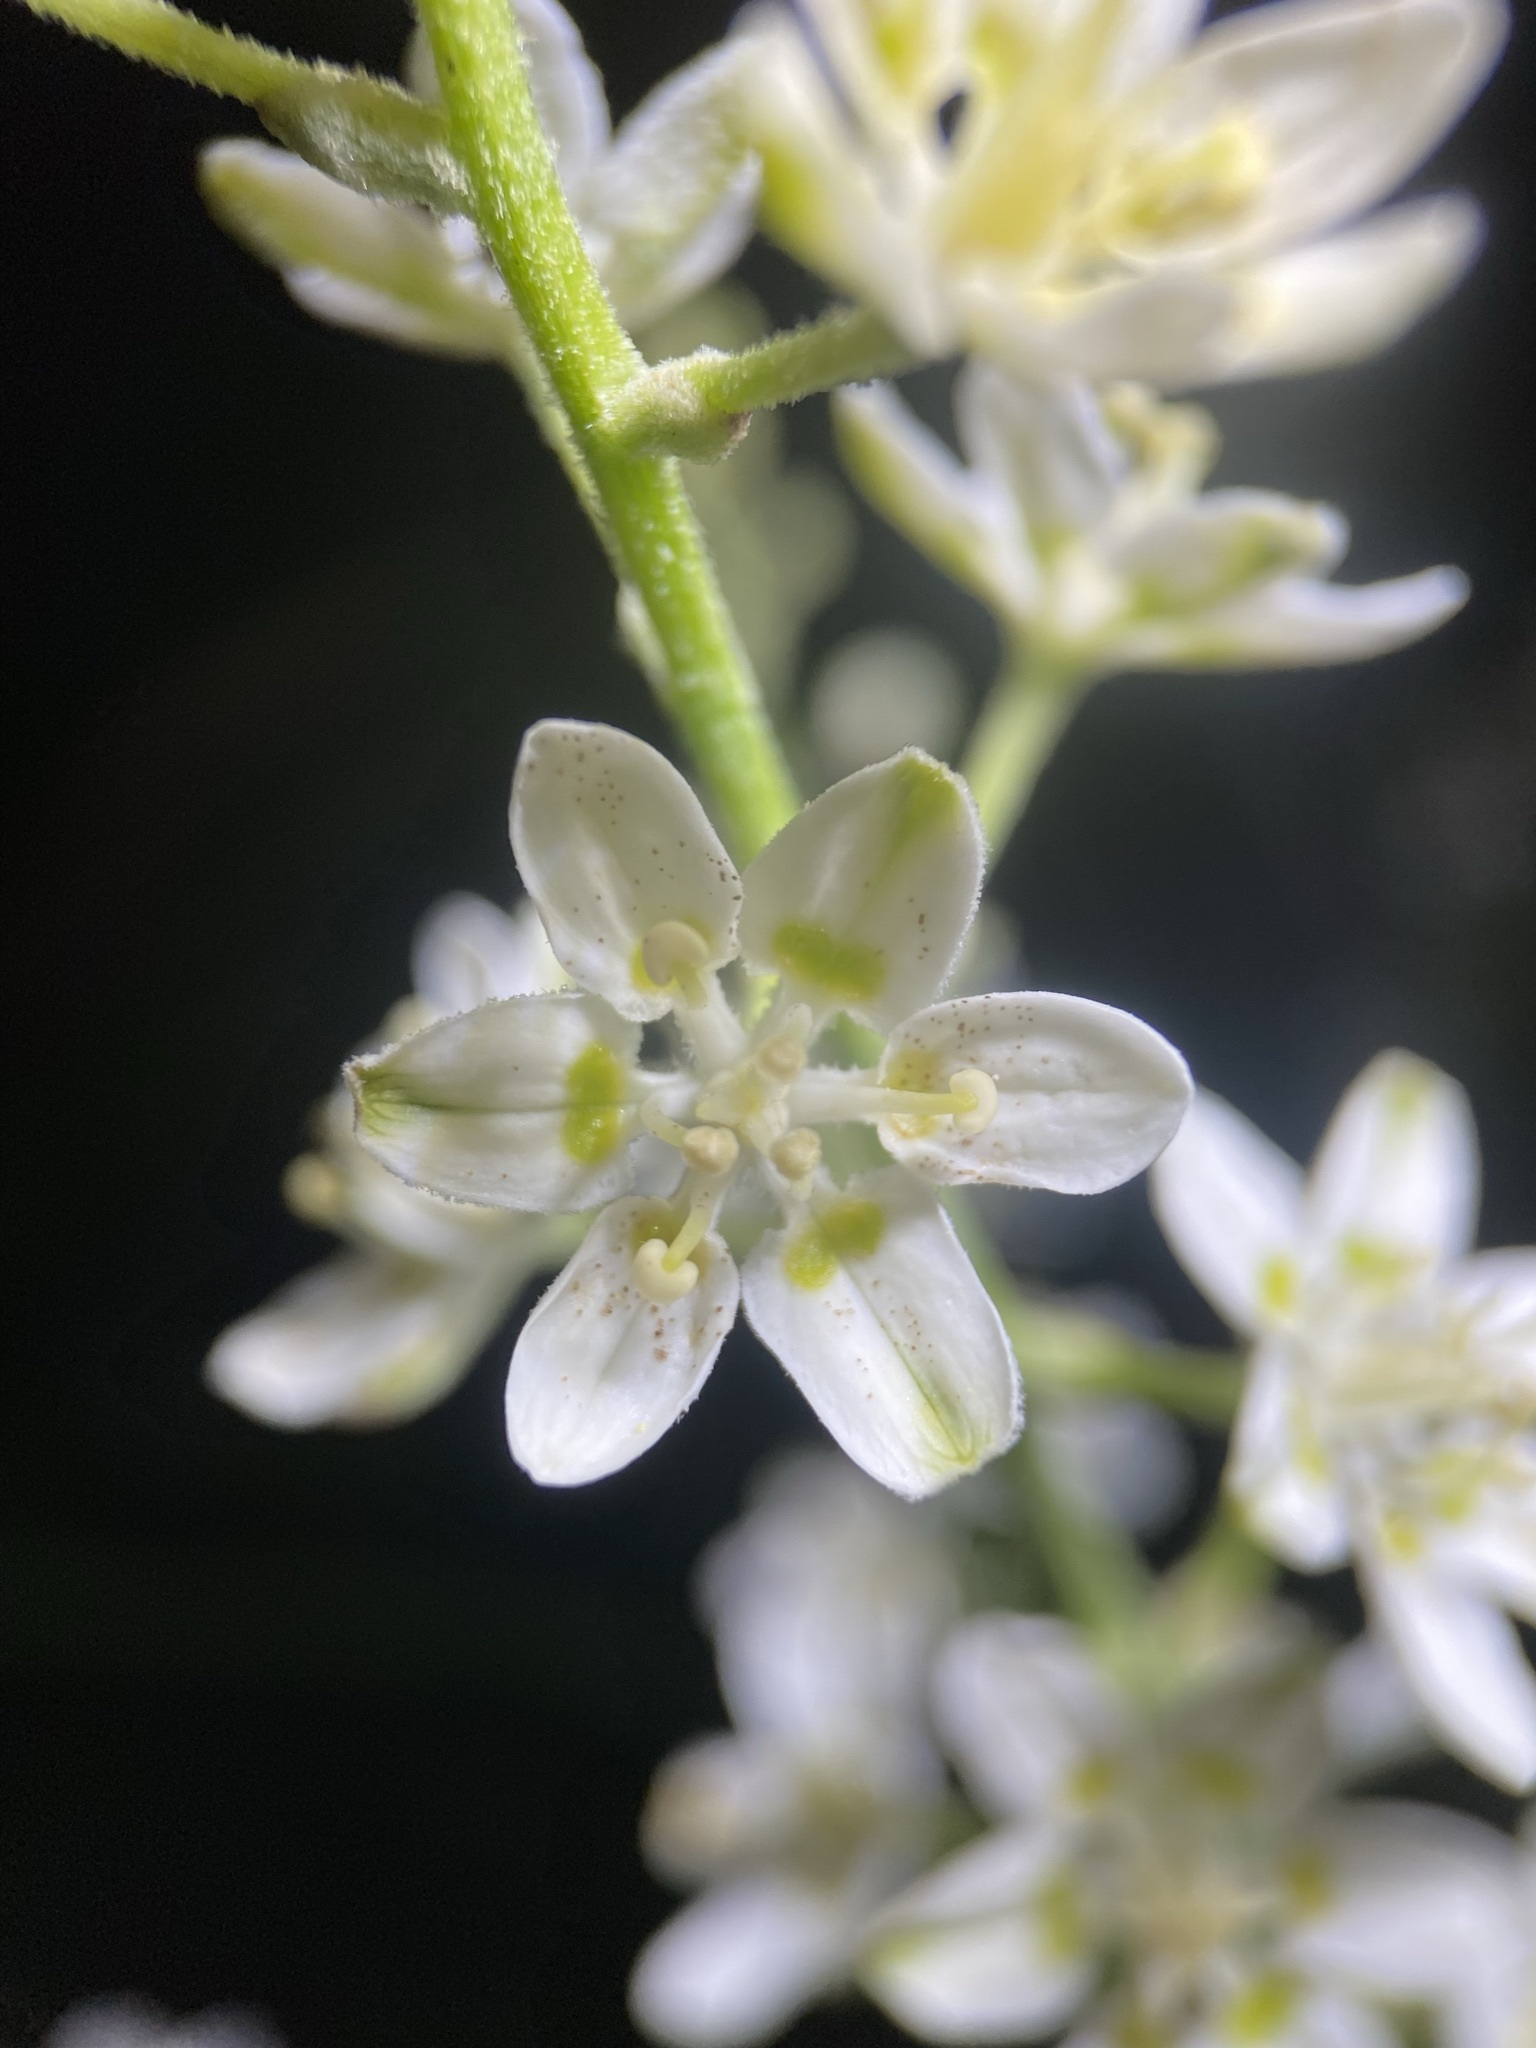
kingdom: Plantae
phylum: Tracheophyta
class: Liliopsida
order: Liliales
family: Melanthiaceae
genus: Melanthium
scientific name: Melanthium virginicum
